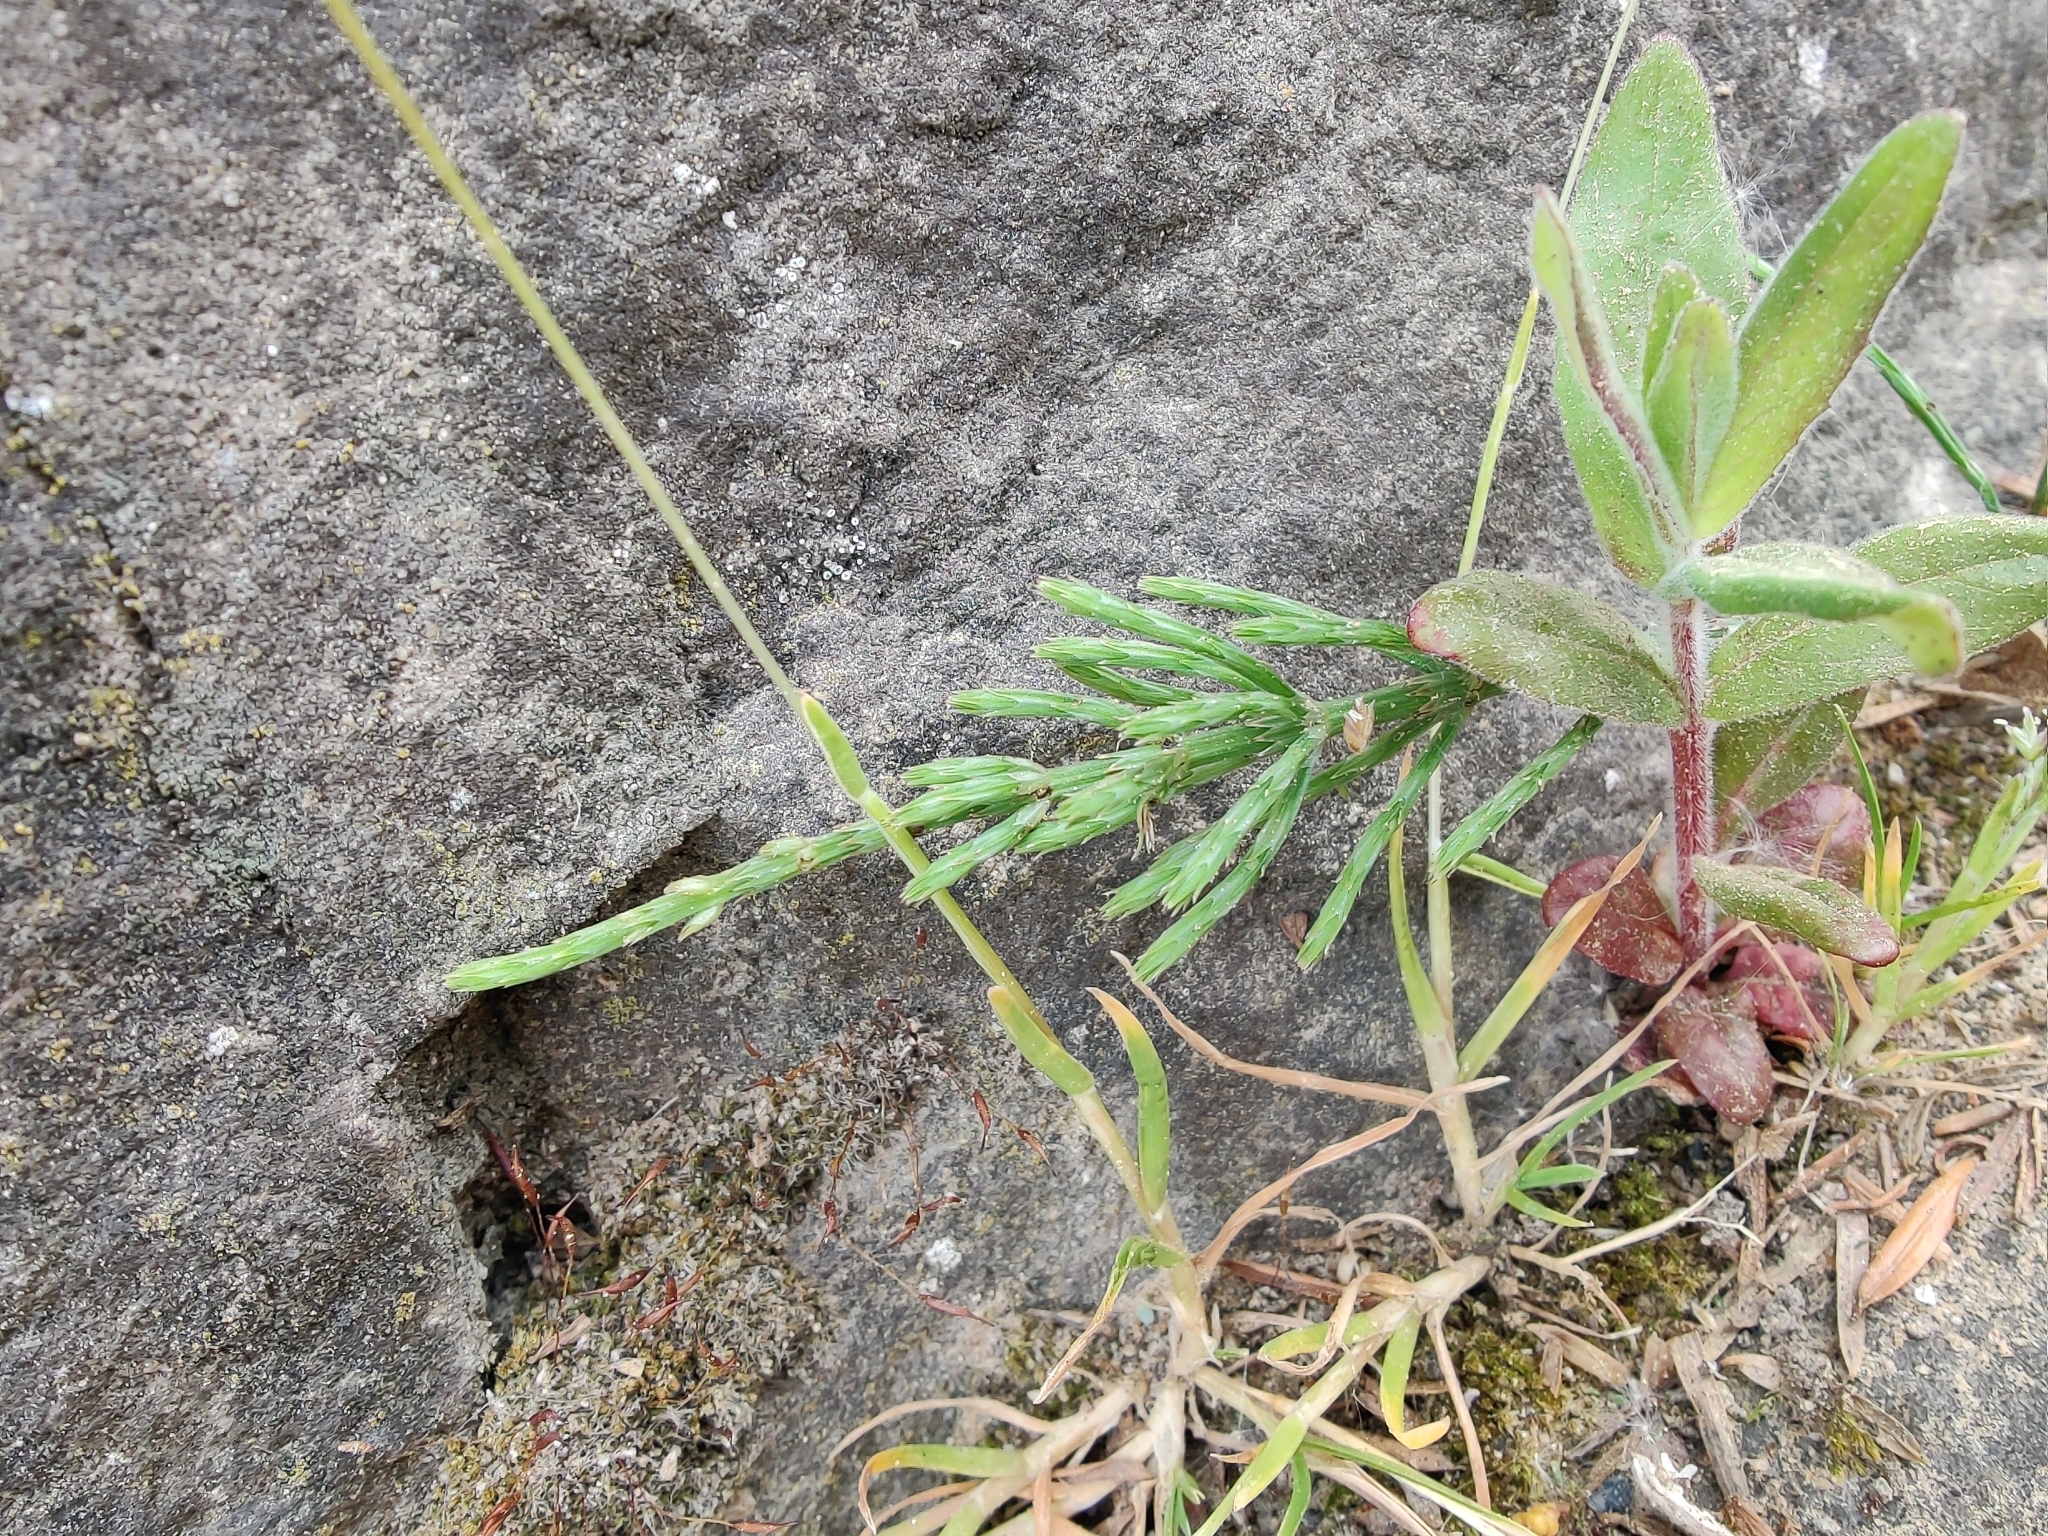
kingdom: Plantae
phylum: Tracheophyta
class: Polypodiopsida
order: Equisetales
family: Equisetaceae
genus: Equisetum
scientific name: Equisetum arvense
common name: Field horsetail
